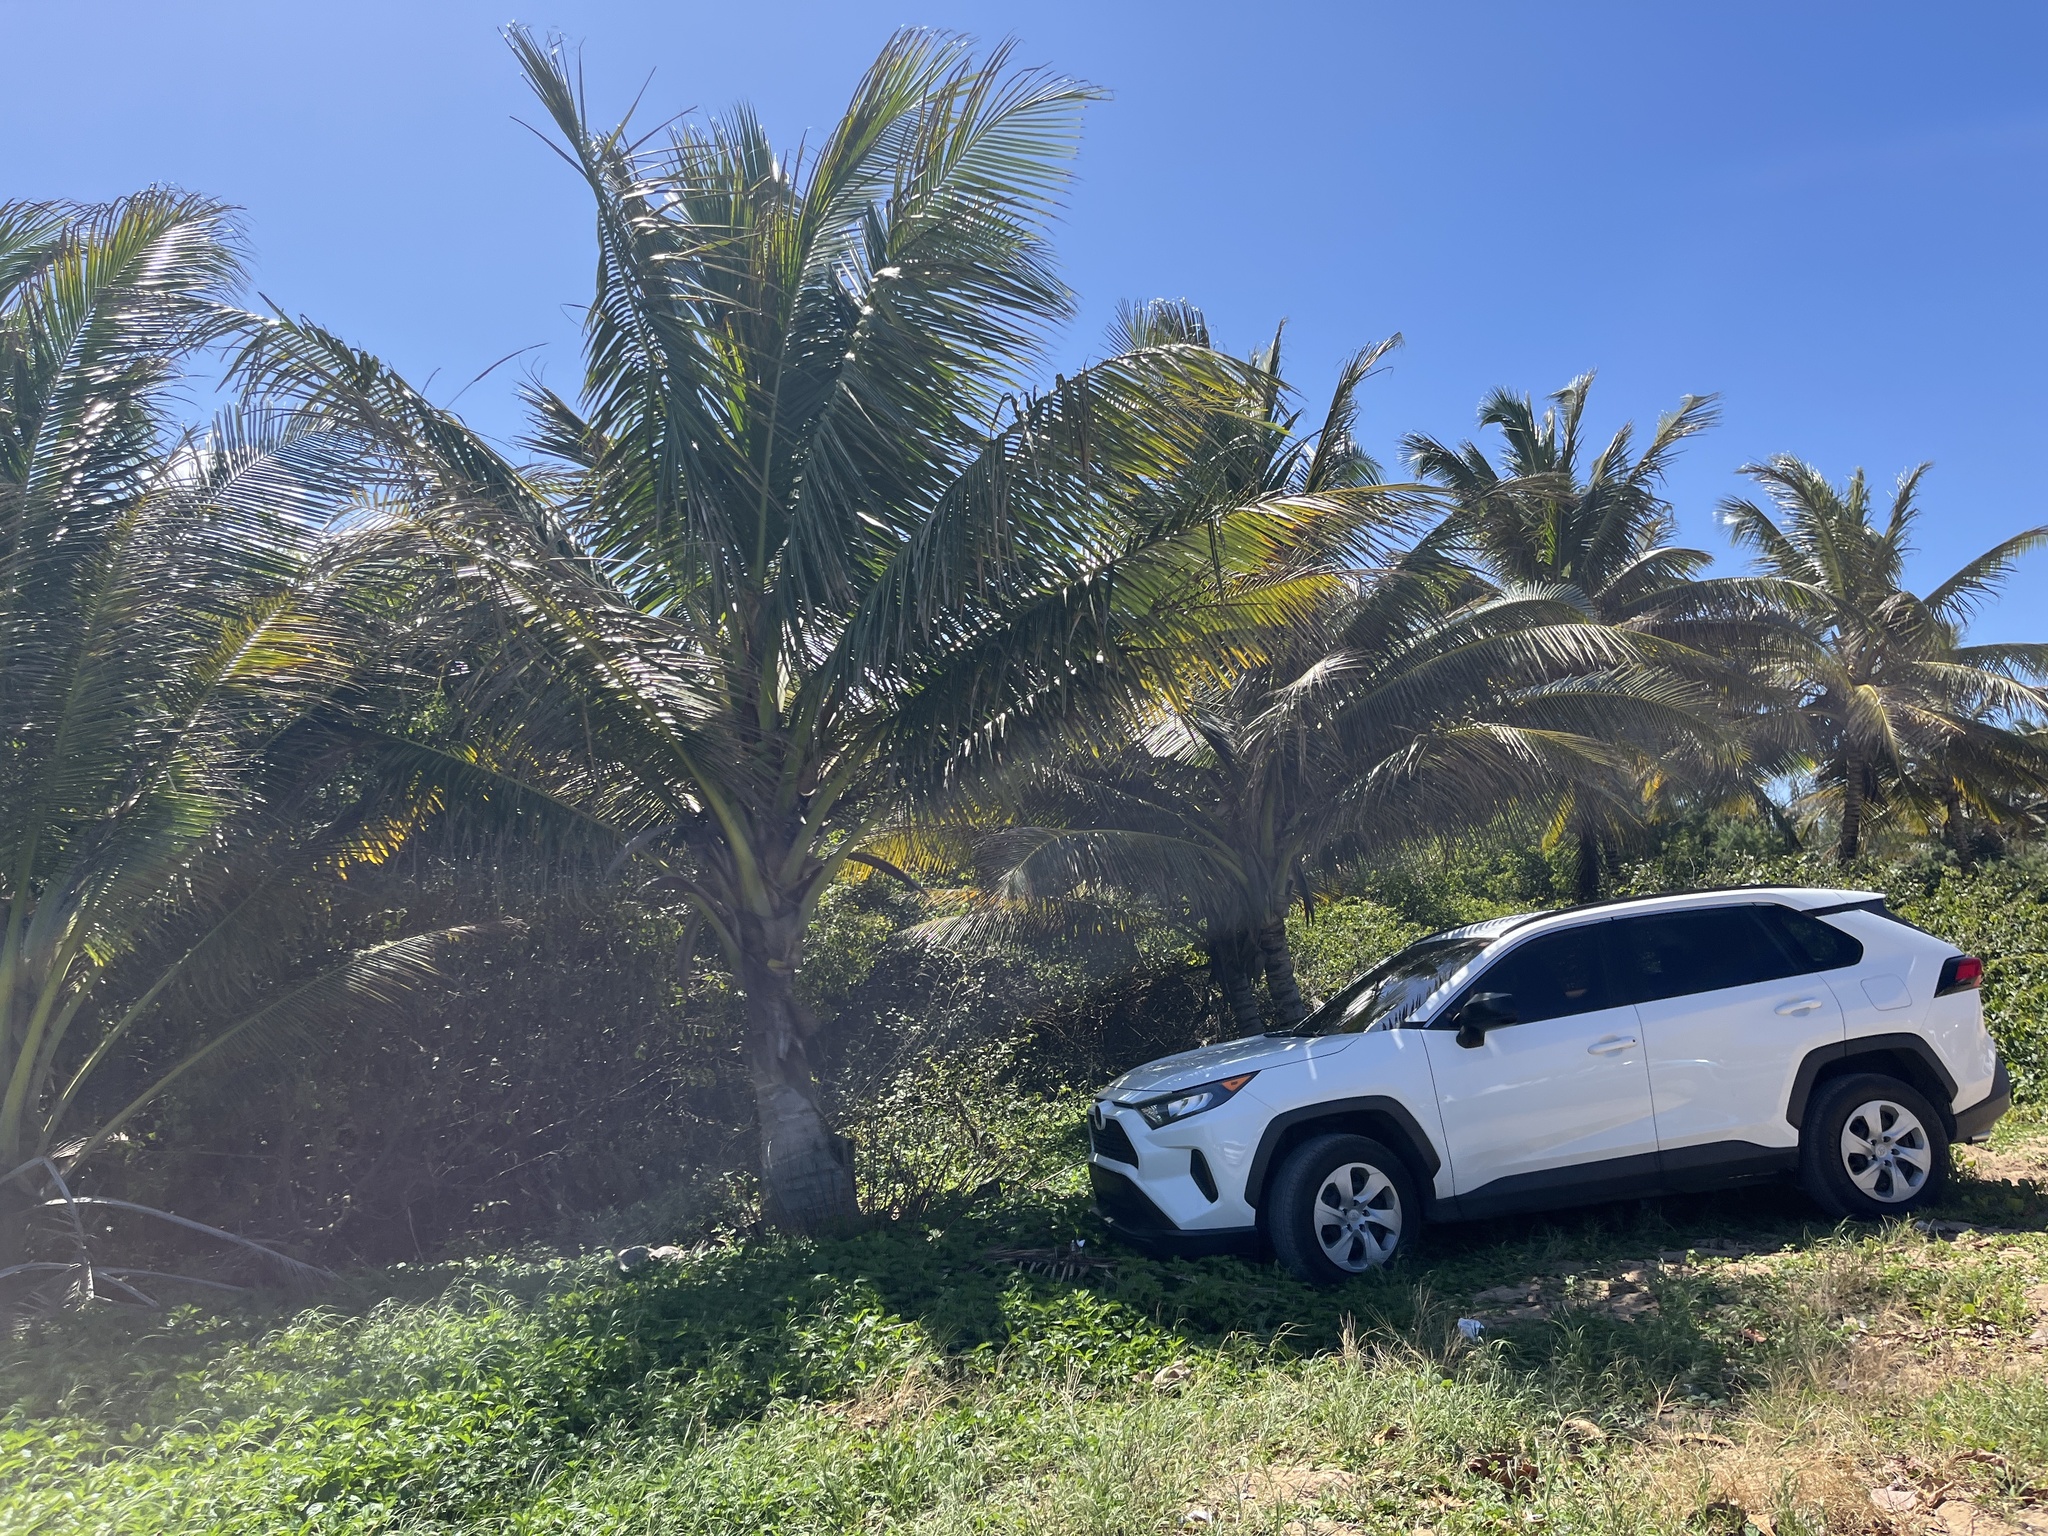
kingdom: Plantae
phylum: Tracheophyta
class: Liliopsida
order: Arecales
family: Arecaceae
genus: Cocos
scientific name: Cocos nucifera
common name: Coconut palm
